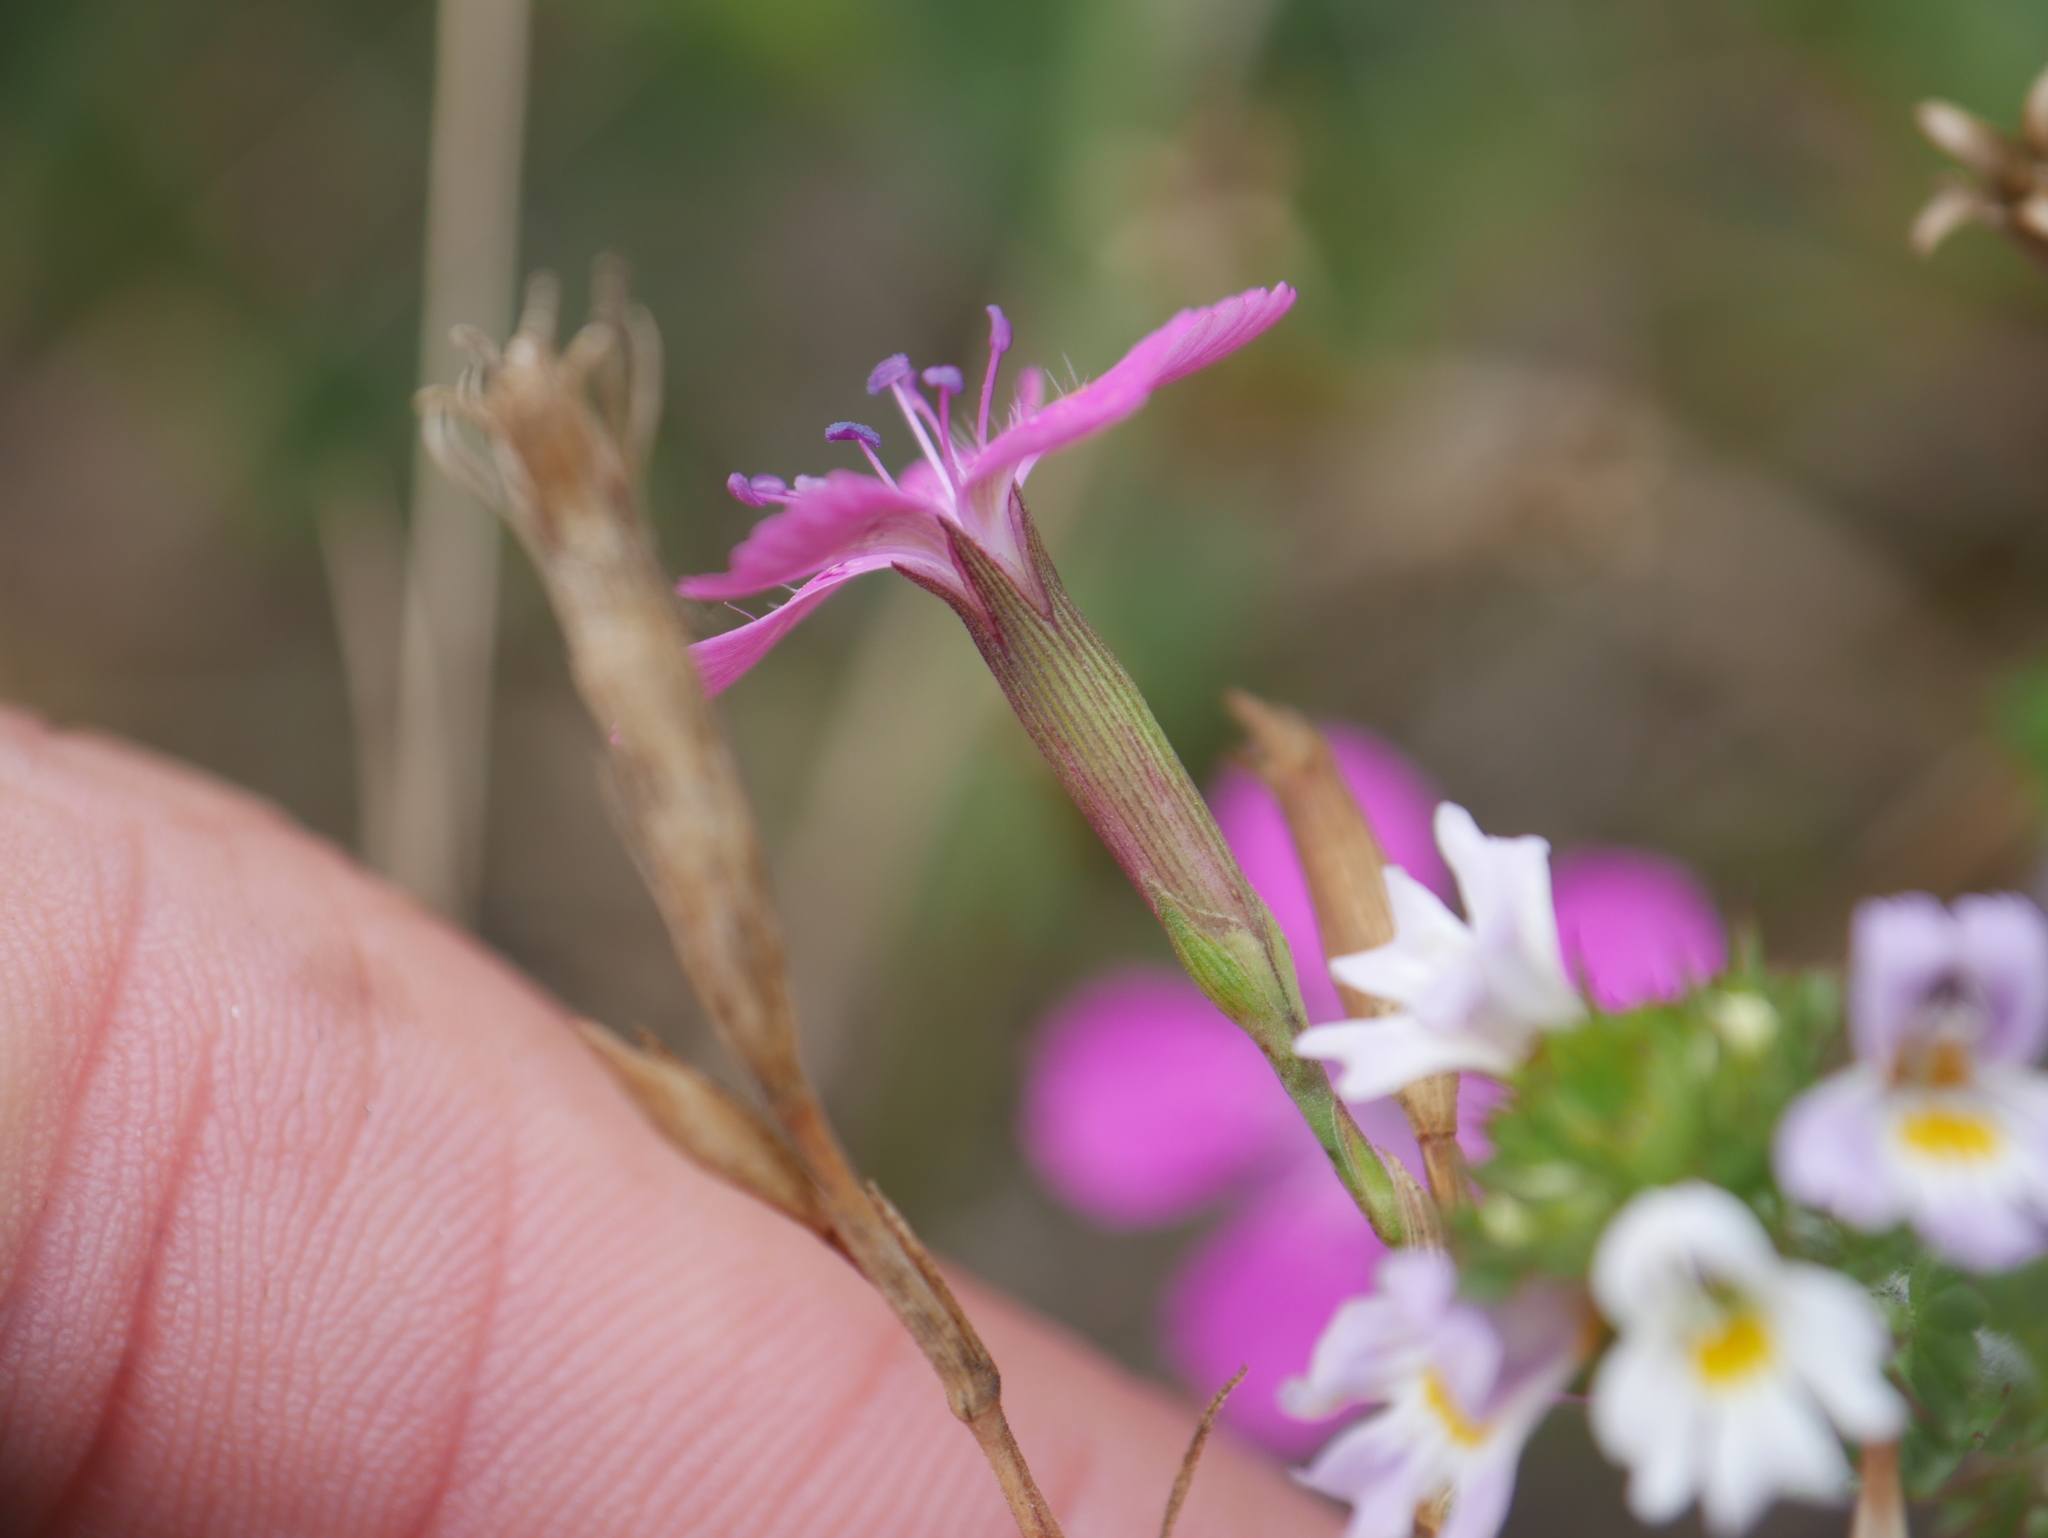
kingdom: Plantae
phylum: Tracheophyta
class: Magnoliopsida
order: Caryophyllales
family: Caryophyllaceae
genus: Dianthus
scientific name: Dianthus deltoides
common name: Maiden pink
